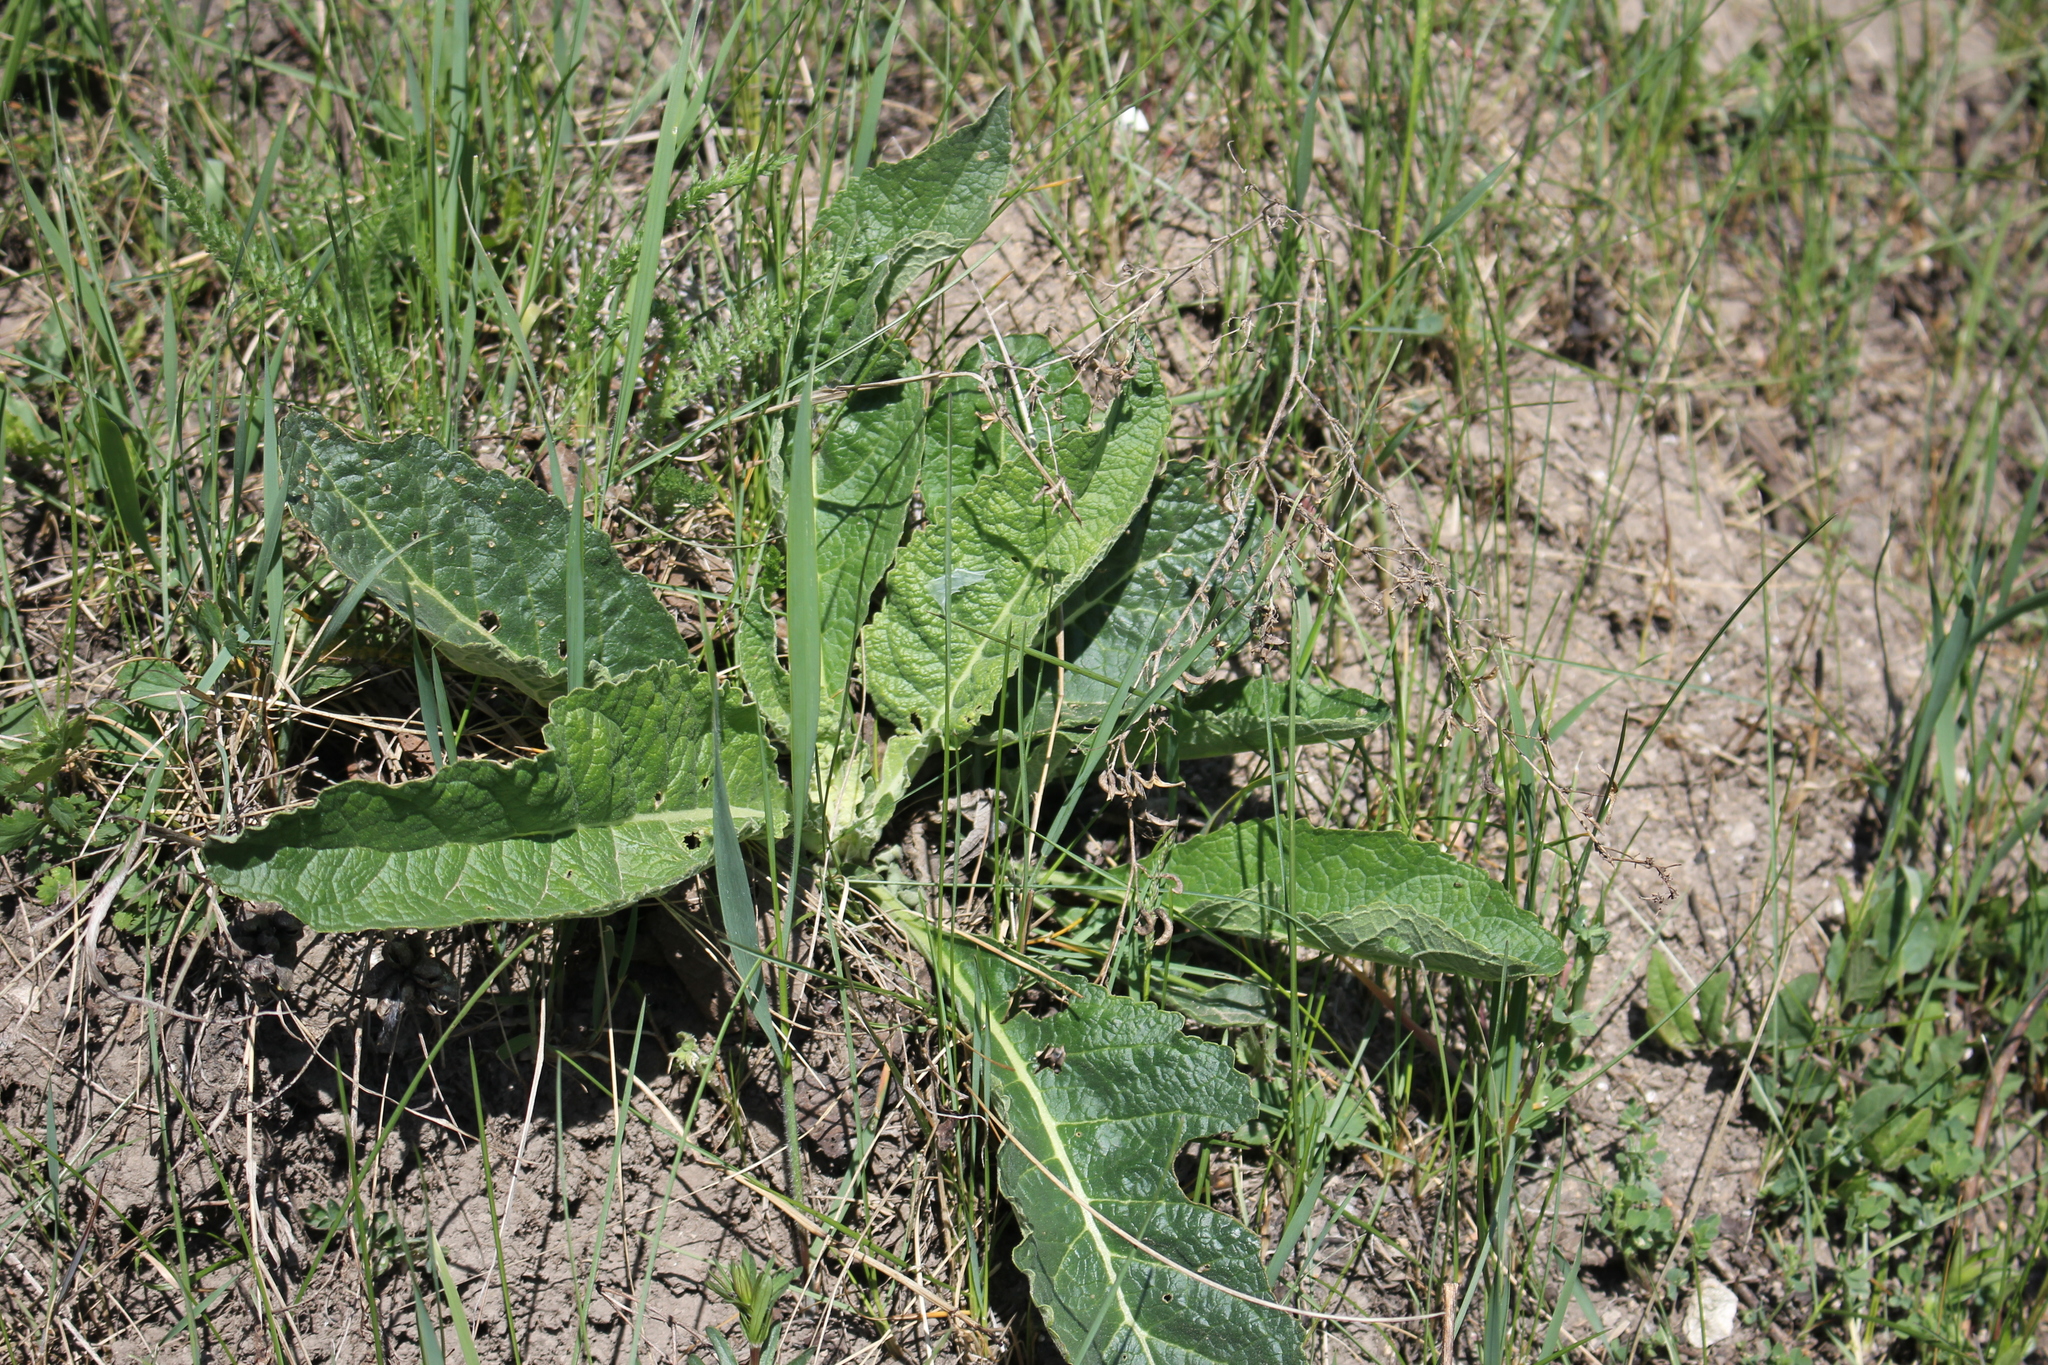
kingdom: Plantae
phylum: Tracheophyta
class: Magnoliopsida
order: Lamiales
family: Scrophulariaceae
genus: Verbascum
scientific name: Verbascum lychnitis
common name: White mullein
